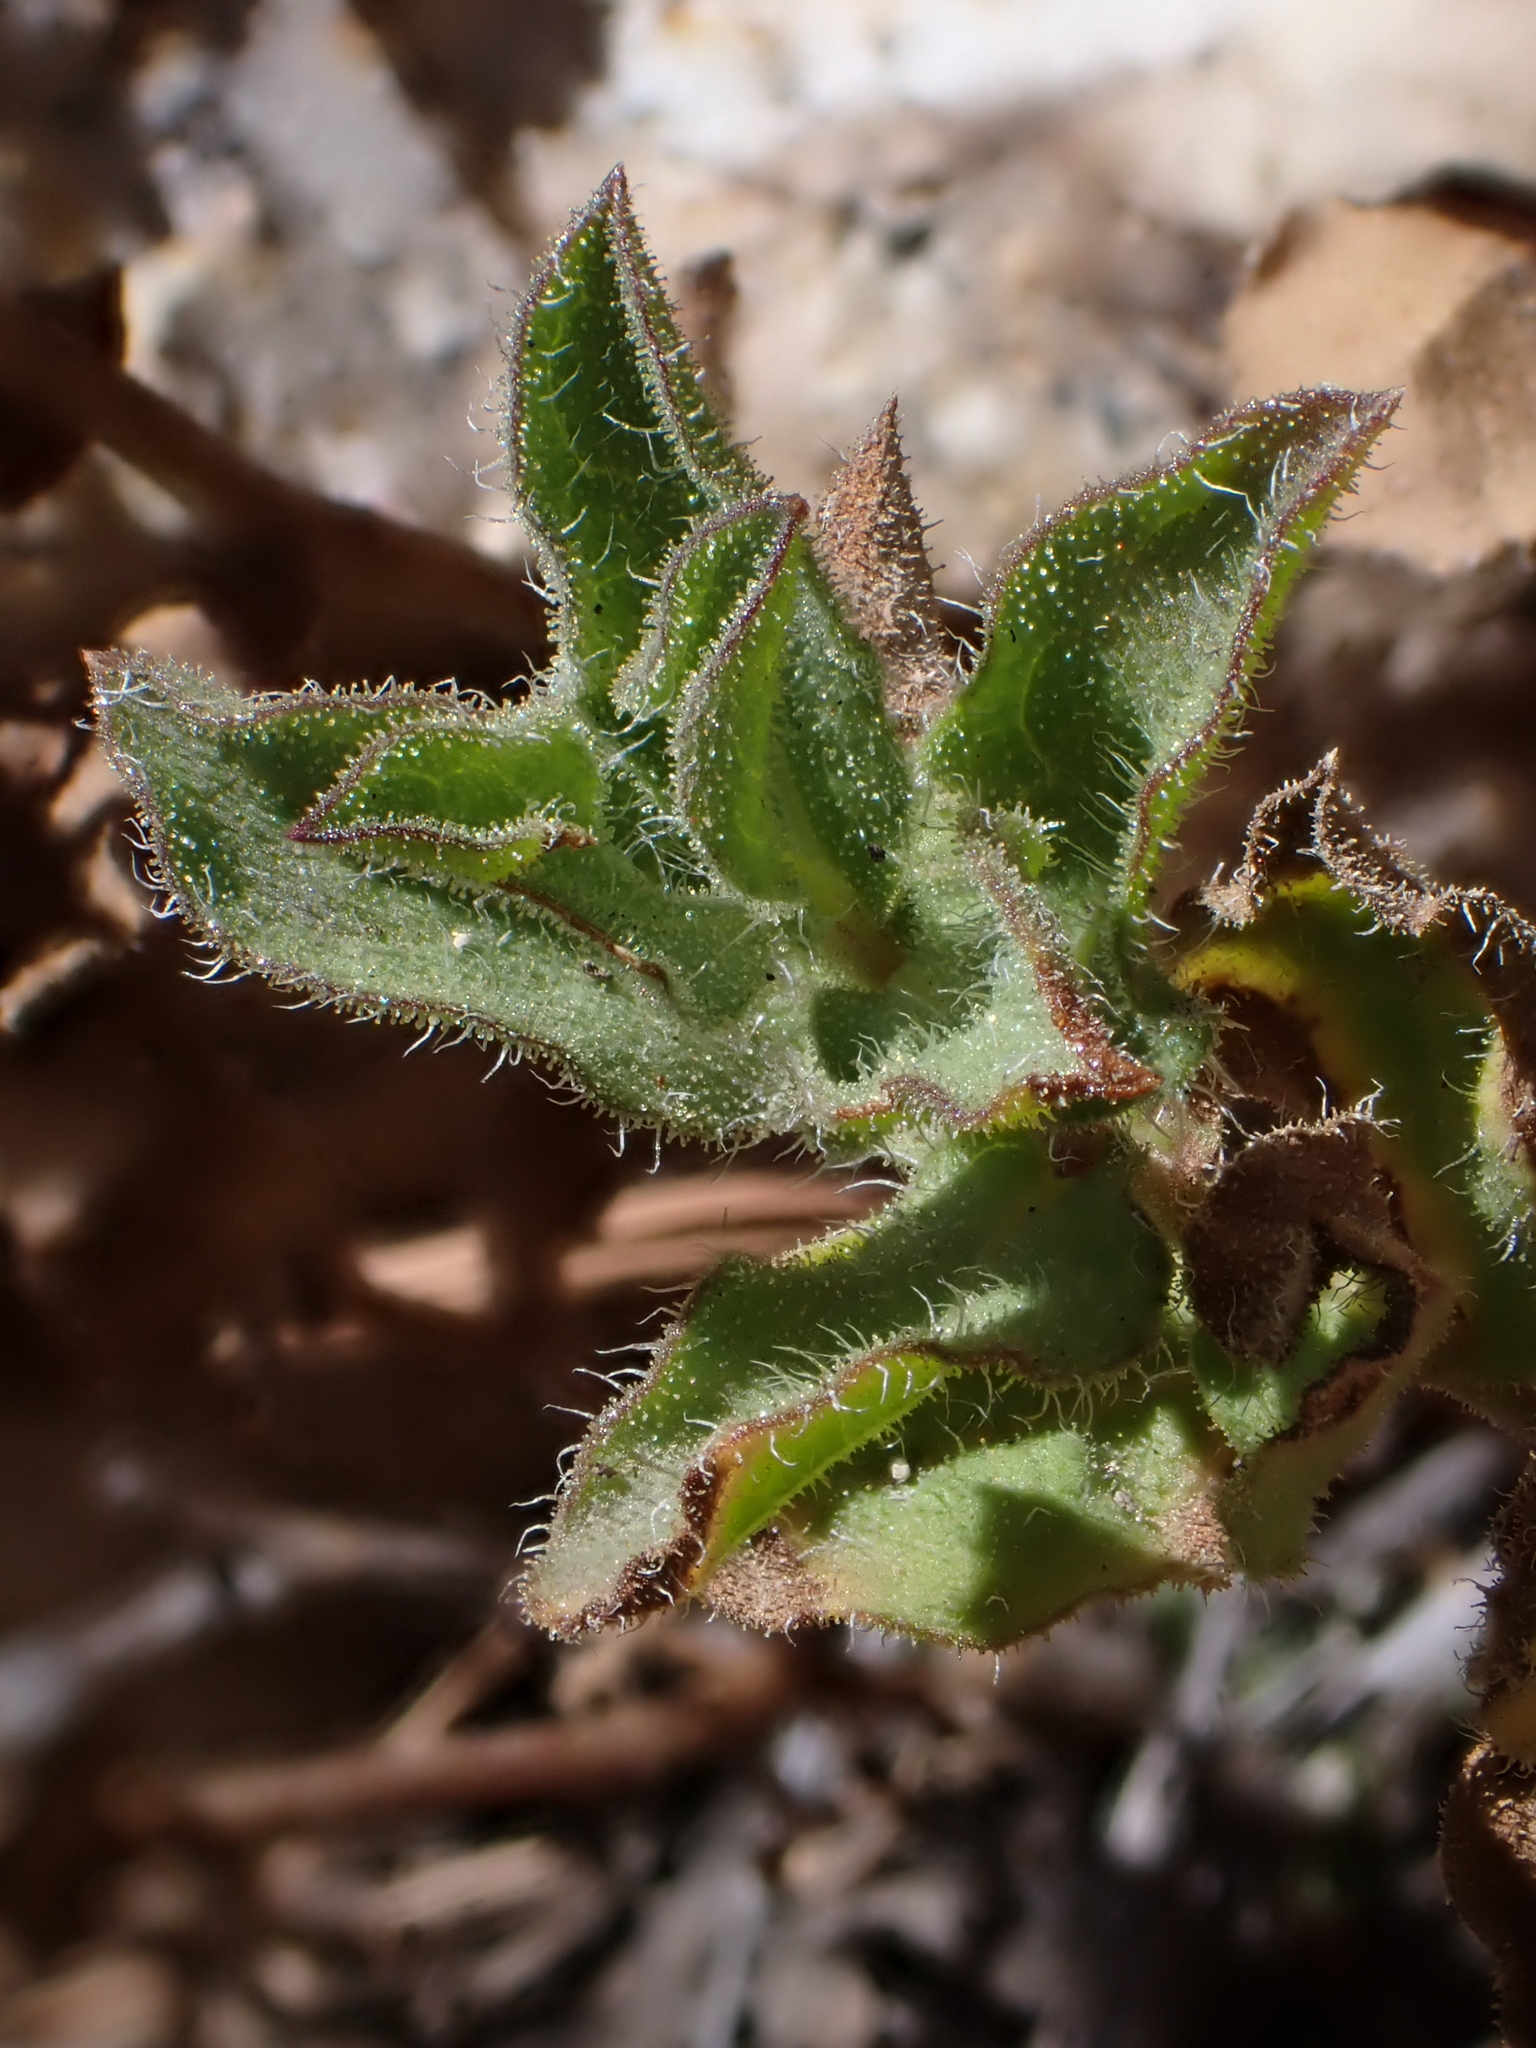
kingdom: Plantae
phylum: Tracheophyta
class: Magnoliopsida
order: Asterales
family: Asteraceae
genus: Heterotheca
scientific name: Heterotheca viscida
